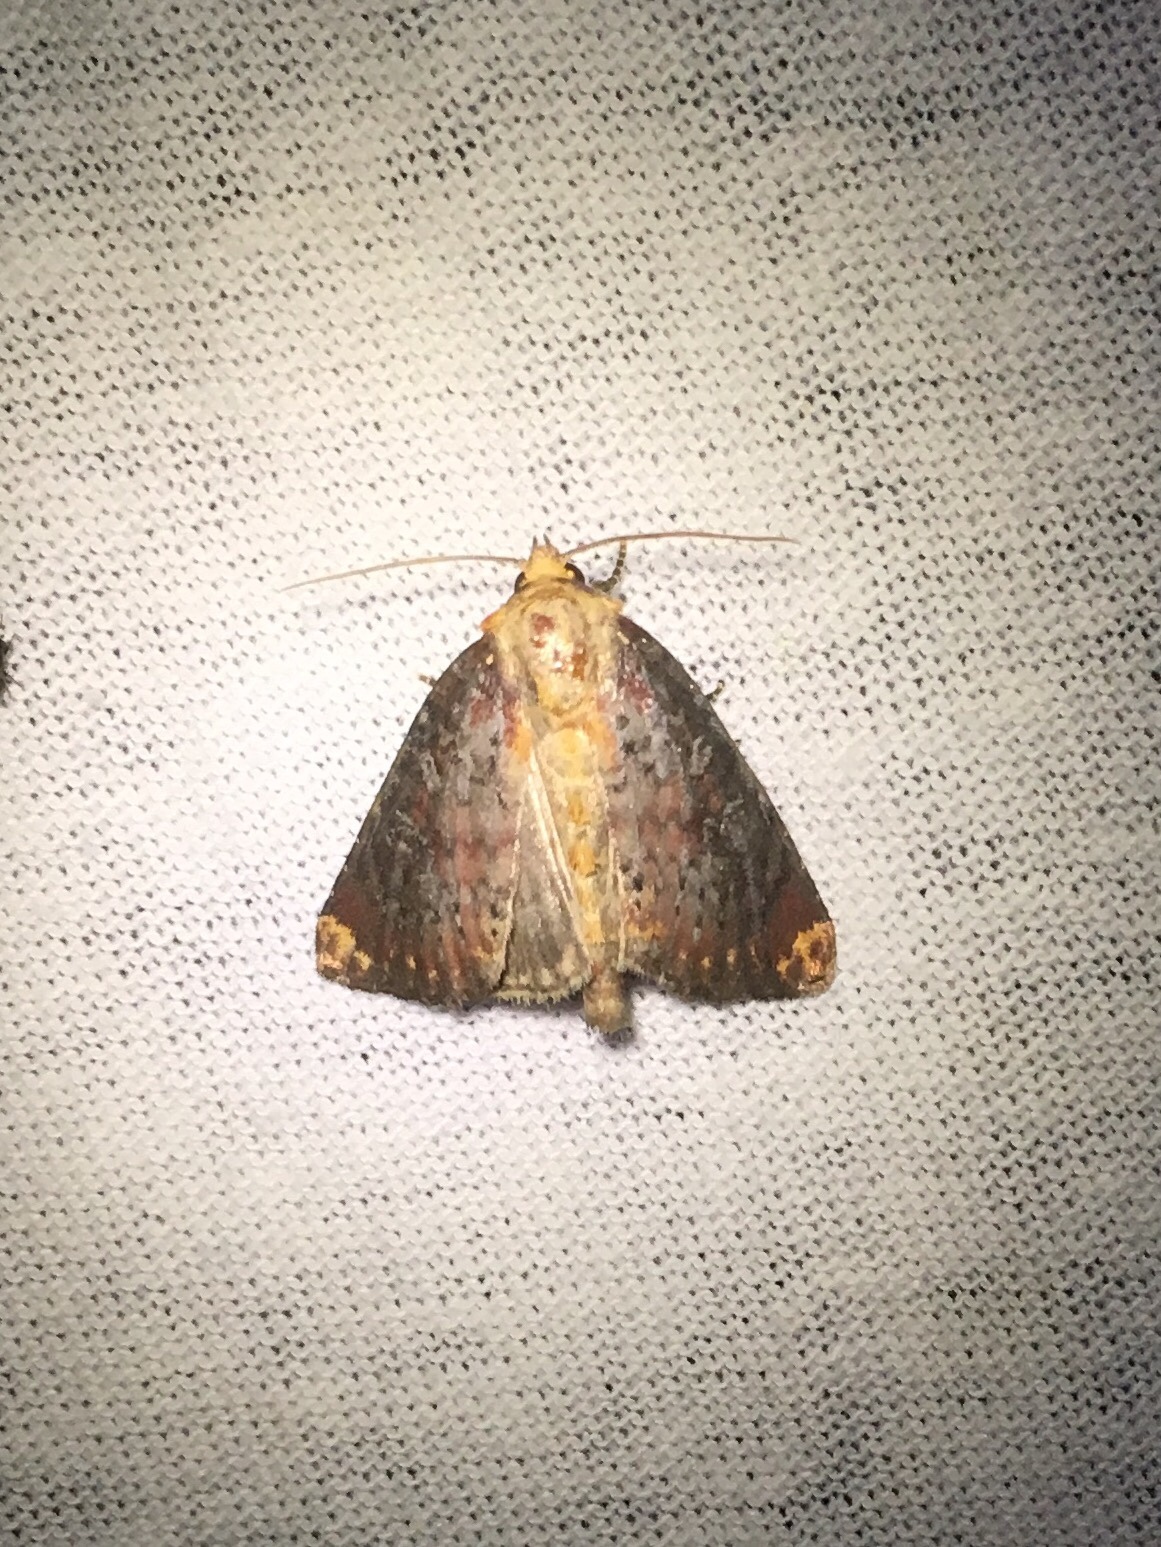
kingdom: Animalia
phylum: Arthropoda
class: Insecta
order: Lepidoptera
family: Noctuidae
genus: Achatodes
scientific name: Achatodes zeae
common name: Elder shoot borer
